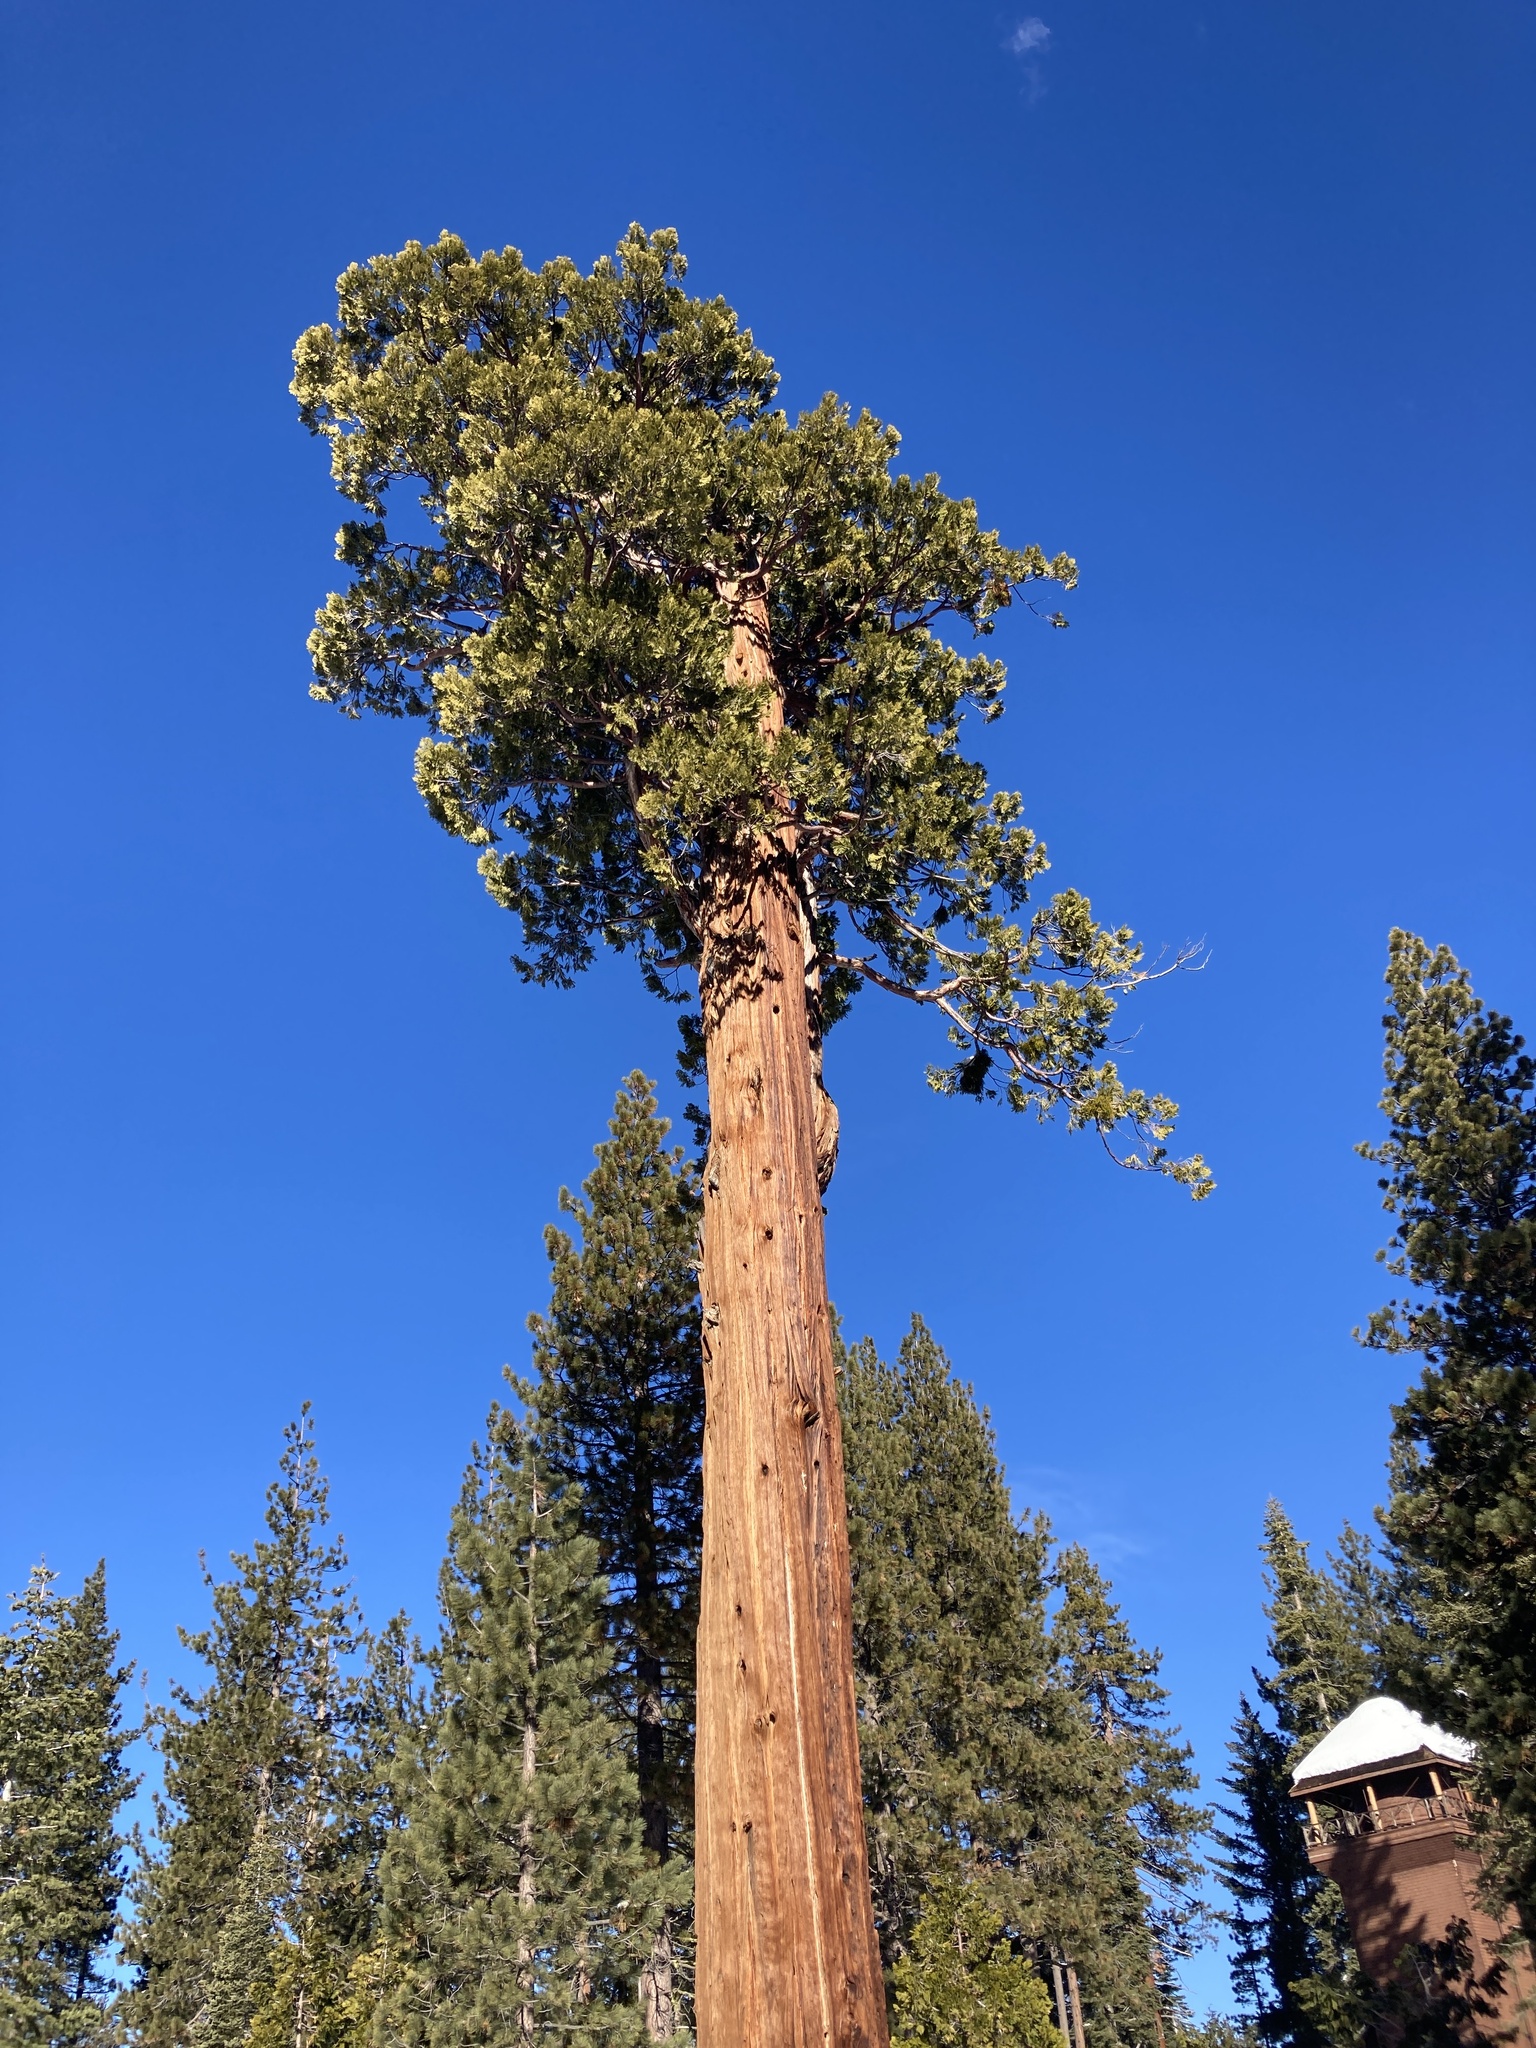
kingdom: Plantae
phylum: Tracheophyta
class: Pinopsida
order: Pinales
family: Cupressaceae
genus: Calocedrus
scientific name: Calocedrus decurrens
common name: Californian incense-cedar
